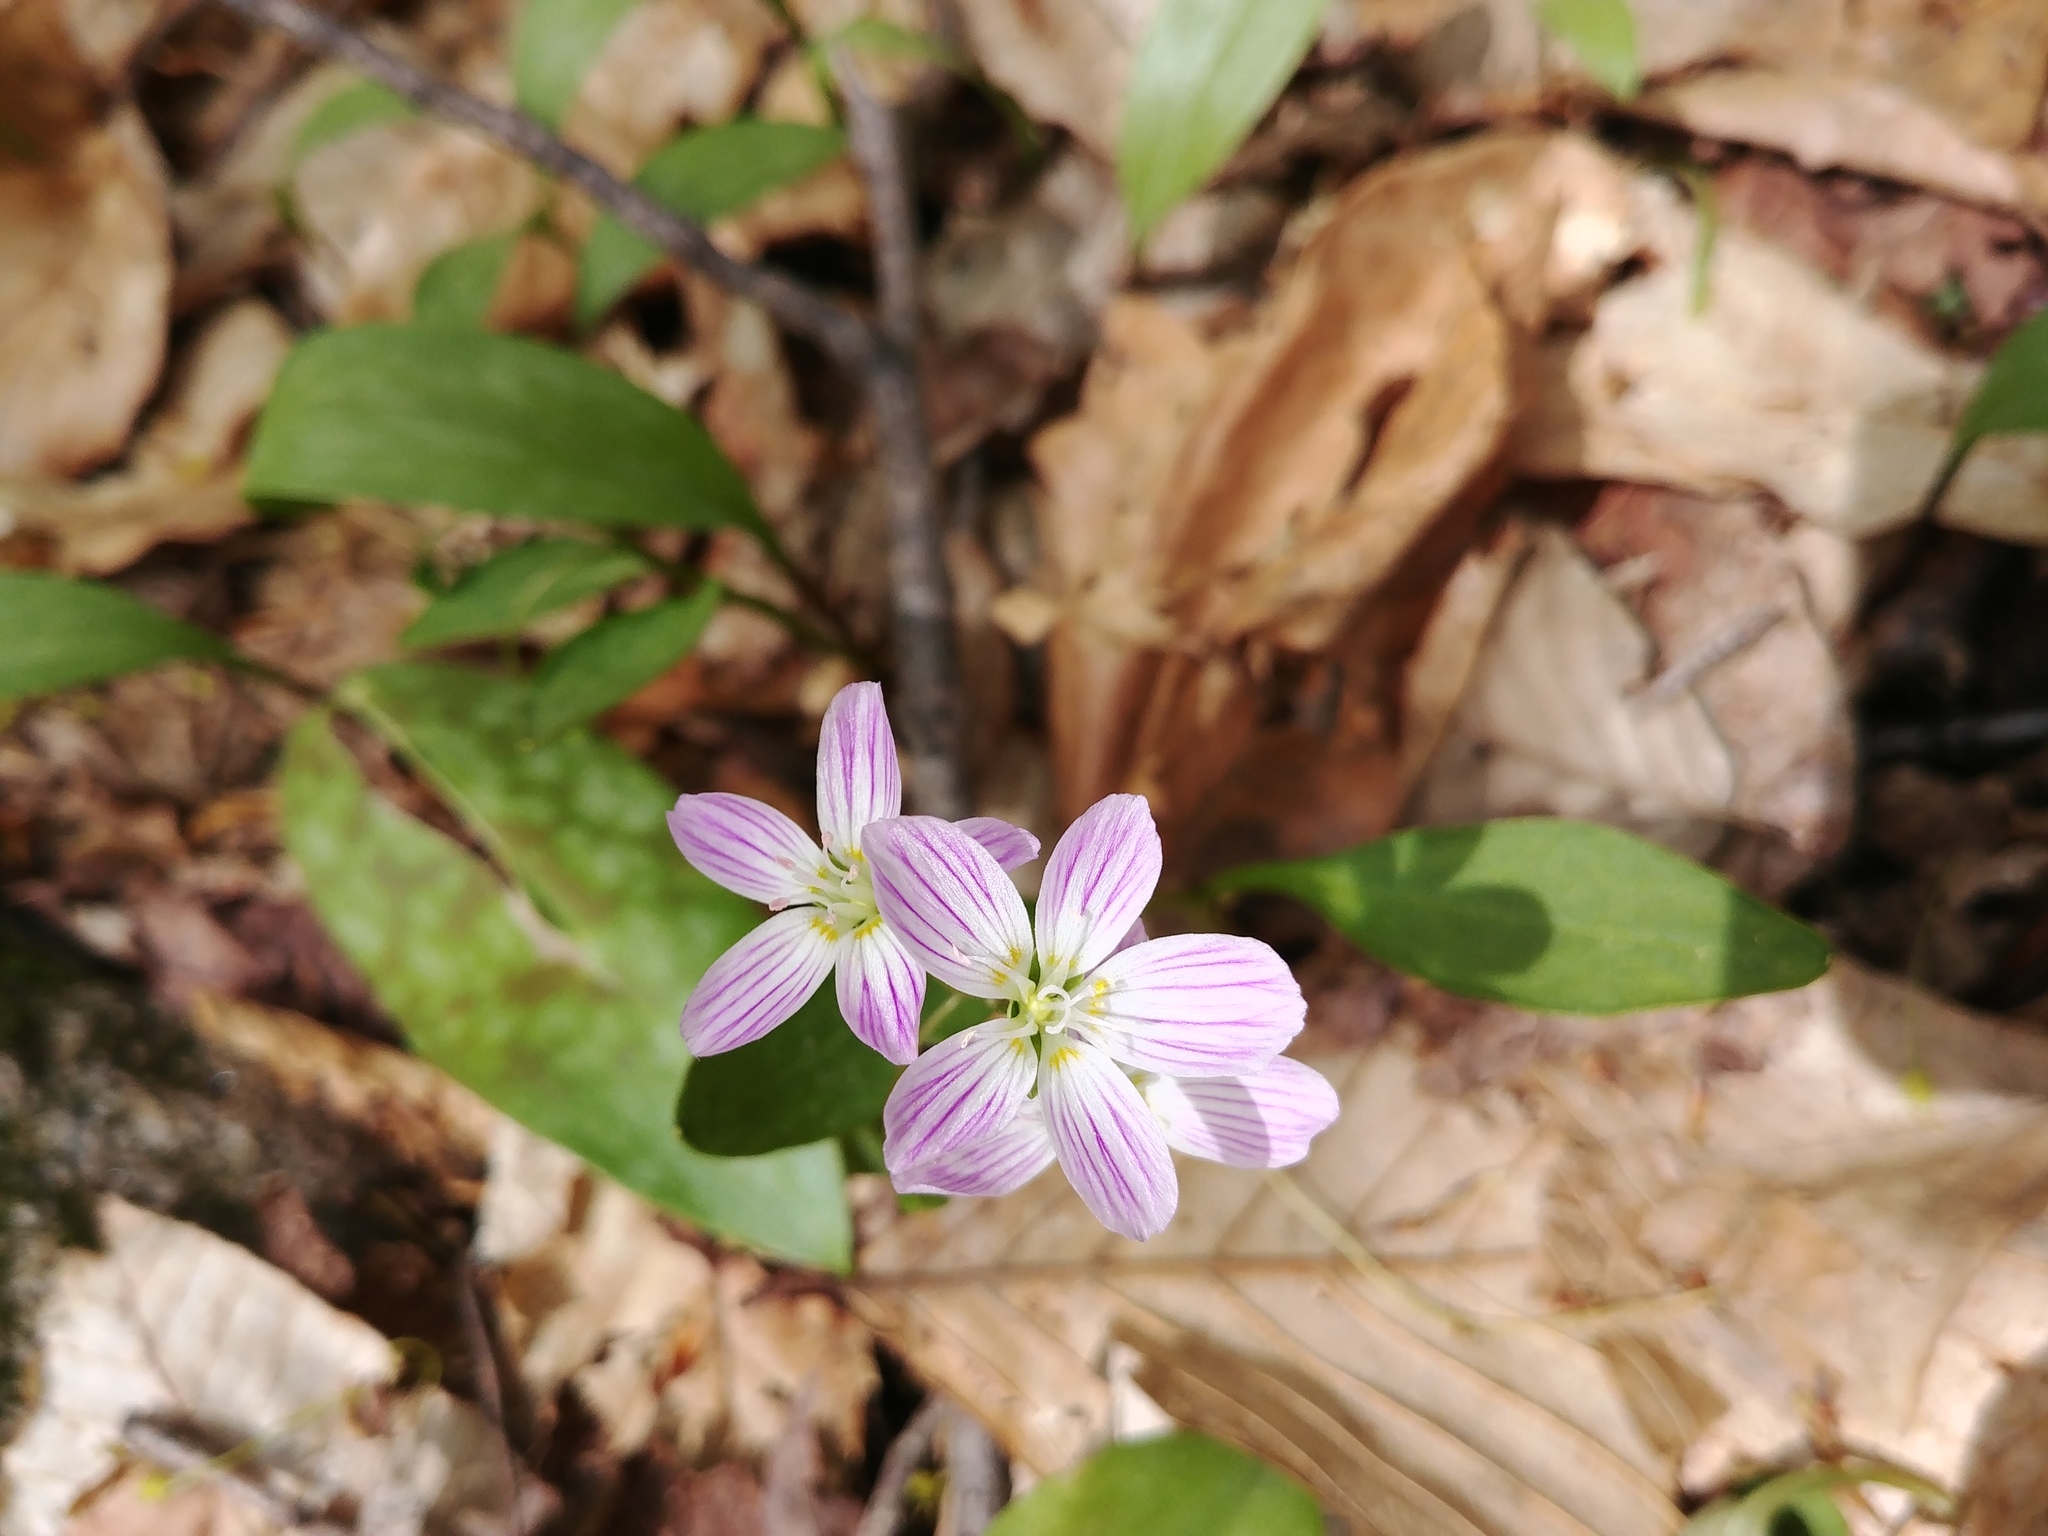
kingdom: Plantae
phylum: Tracheophyta
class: Magnoliopsida
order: Caryophyllales
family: Montiaceae
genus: Claytonia
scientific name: Claytonia caroliniana
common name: Carolina spring beauty
